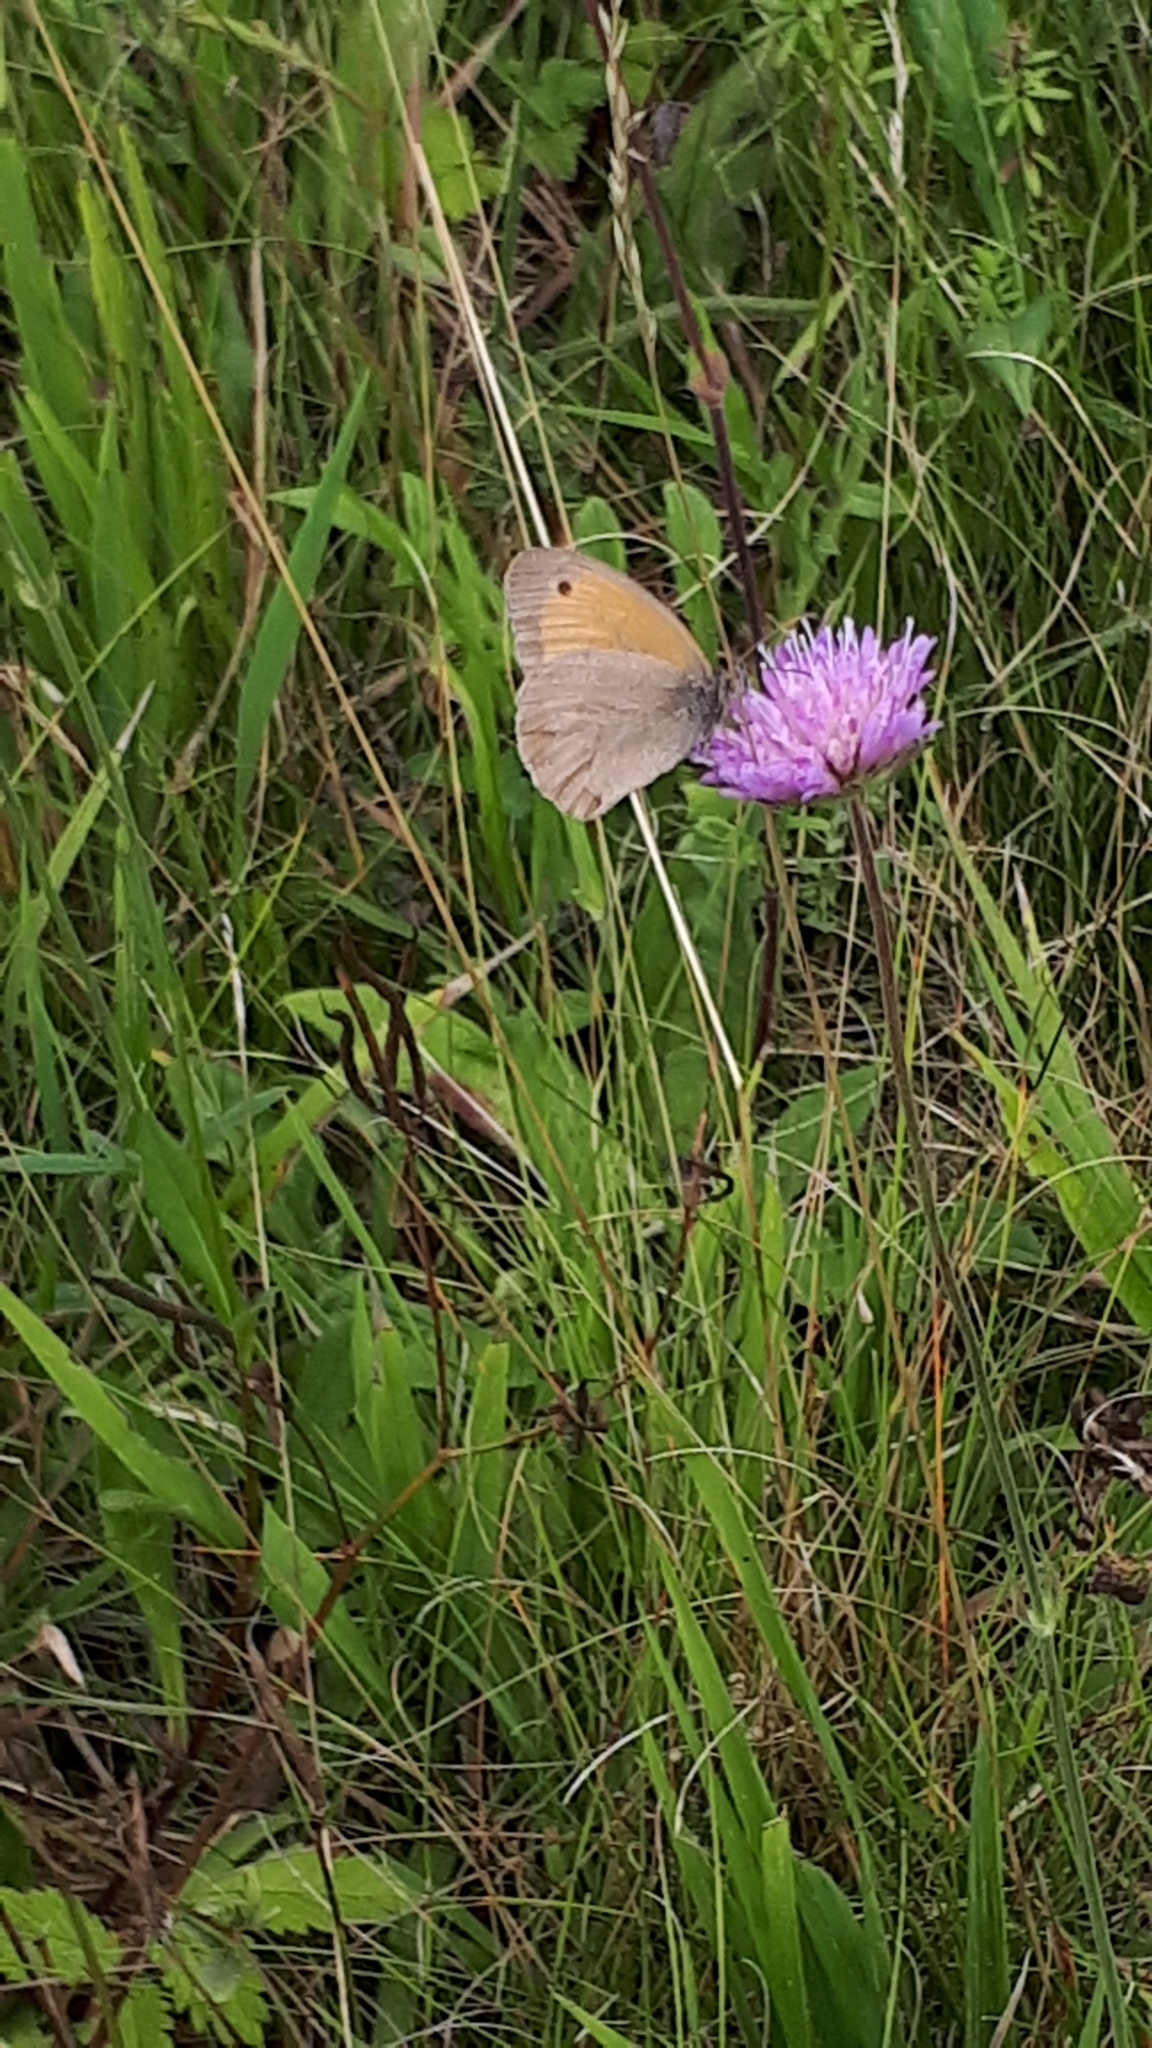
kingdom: Animalia
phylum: Arthropoda
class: Insecta
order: Lepidoptera
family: Nymphalidae
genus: Maniola
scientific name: Maniola jurtina
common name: Meadow brown
